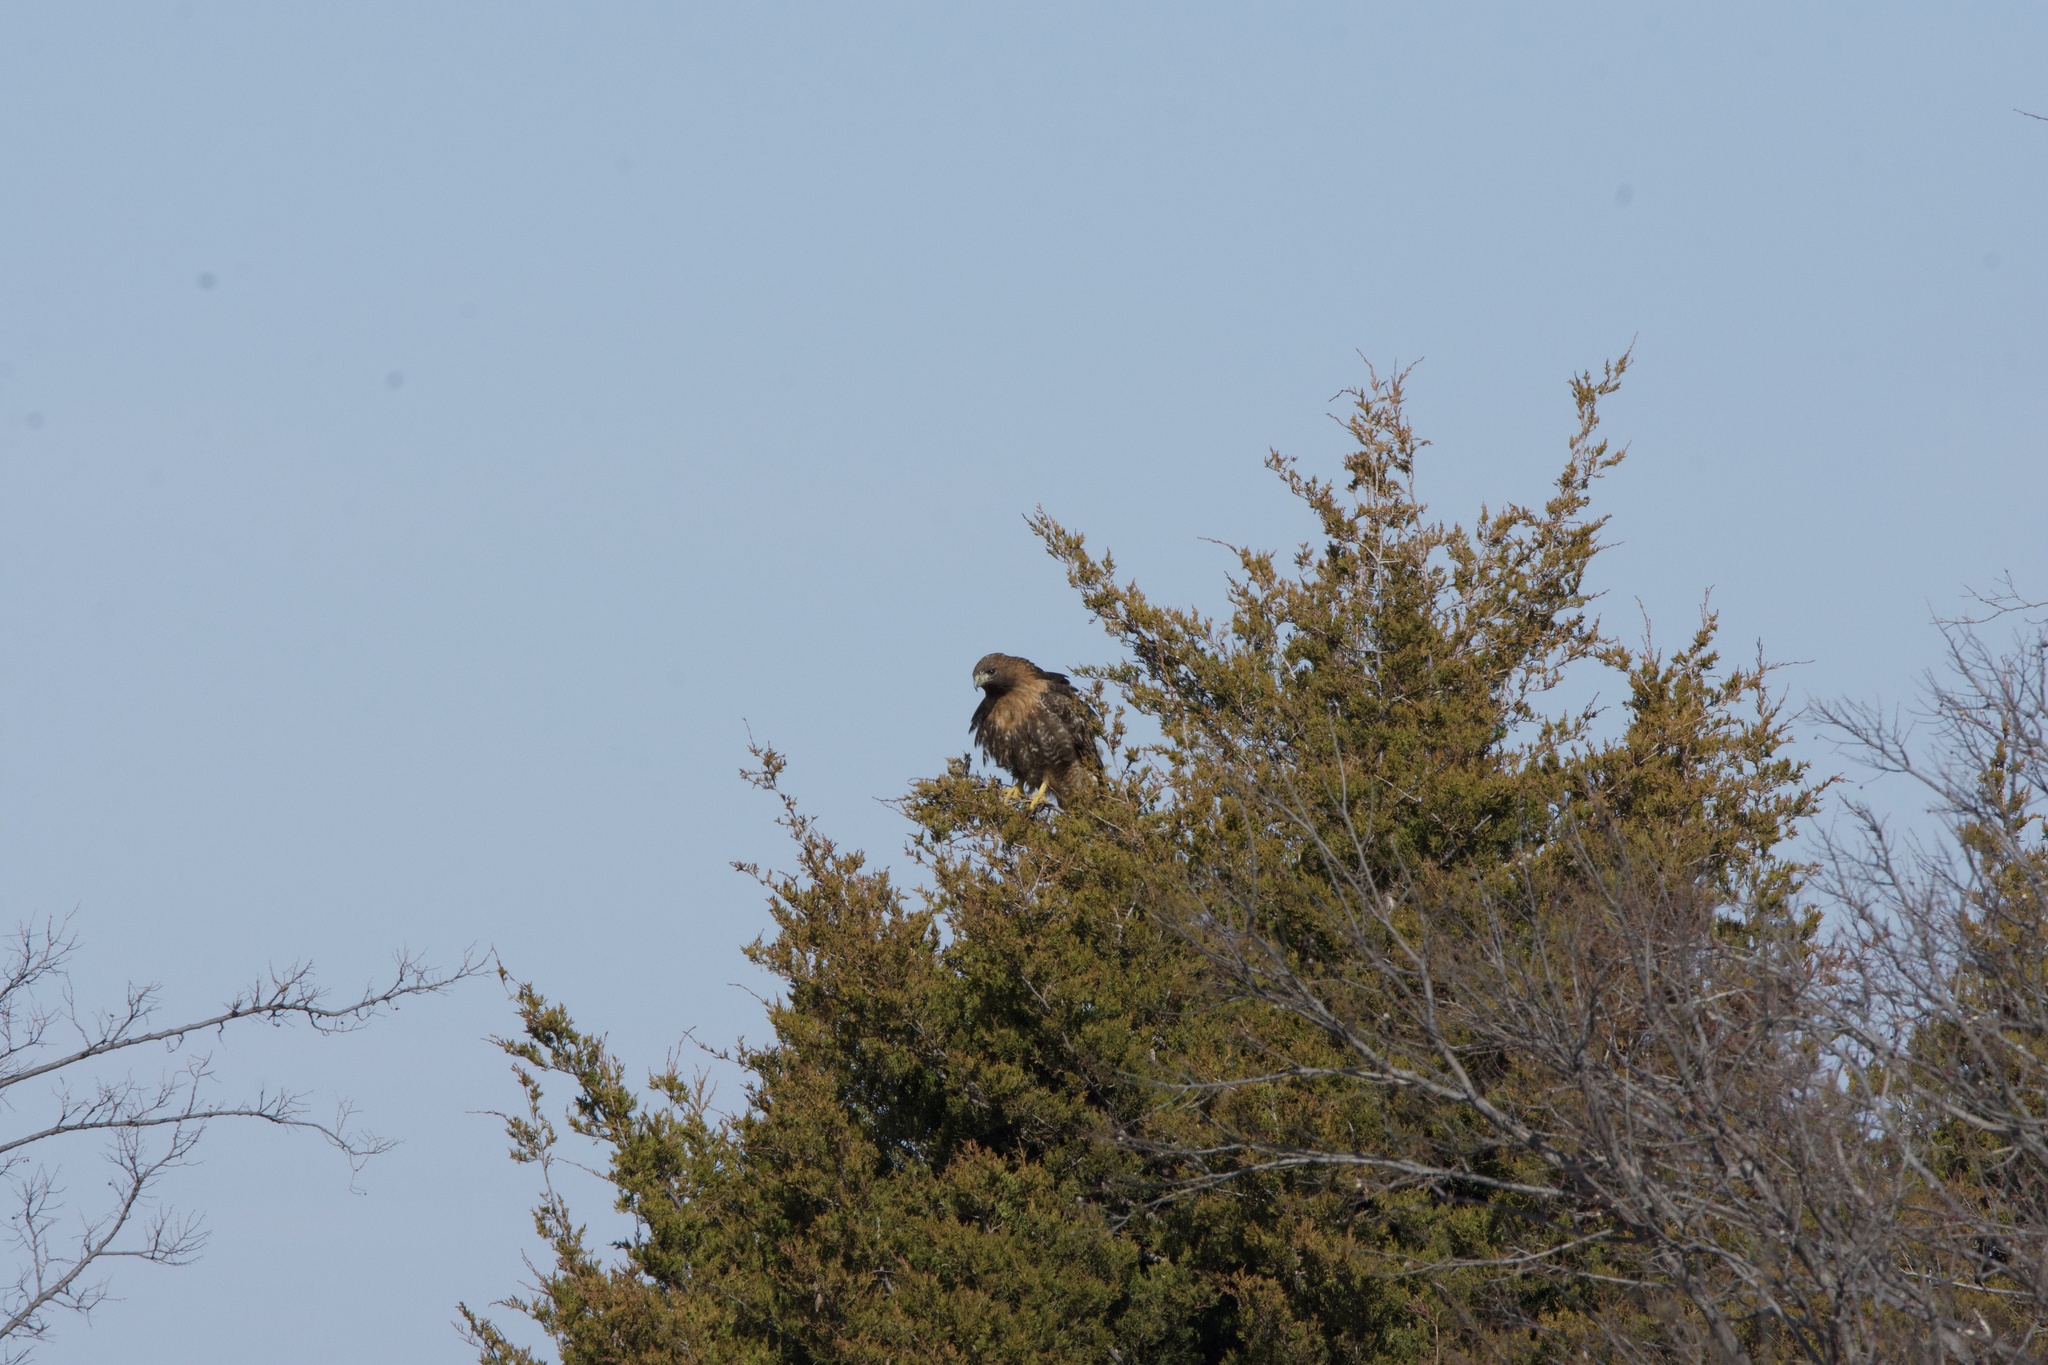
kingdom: Animalia
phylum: Chordata
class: Aves
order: Accipitriformes
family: Accipitridae
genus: Buteo
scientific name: Buteo jamaicensis
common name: Red-tailed hawk
